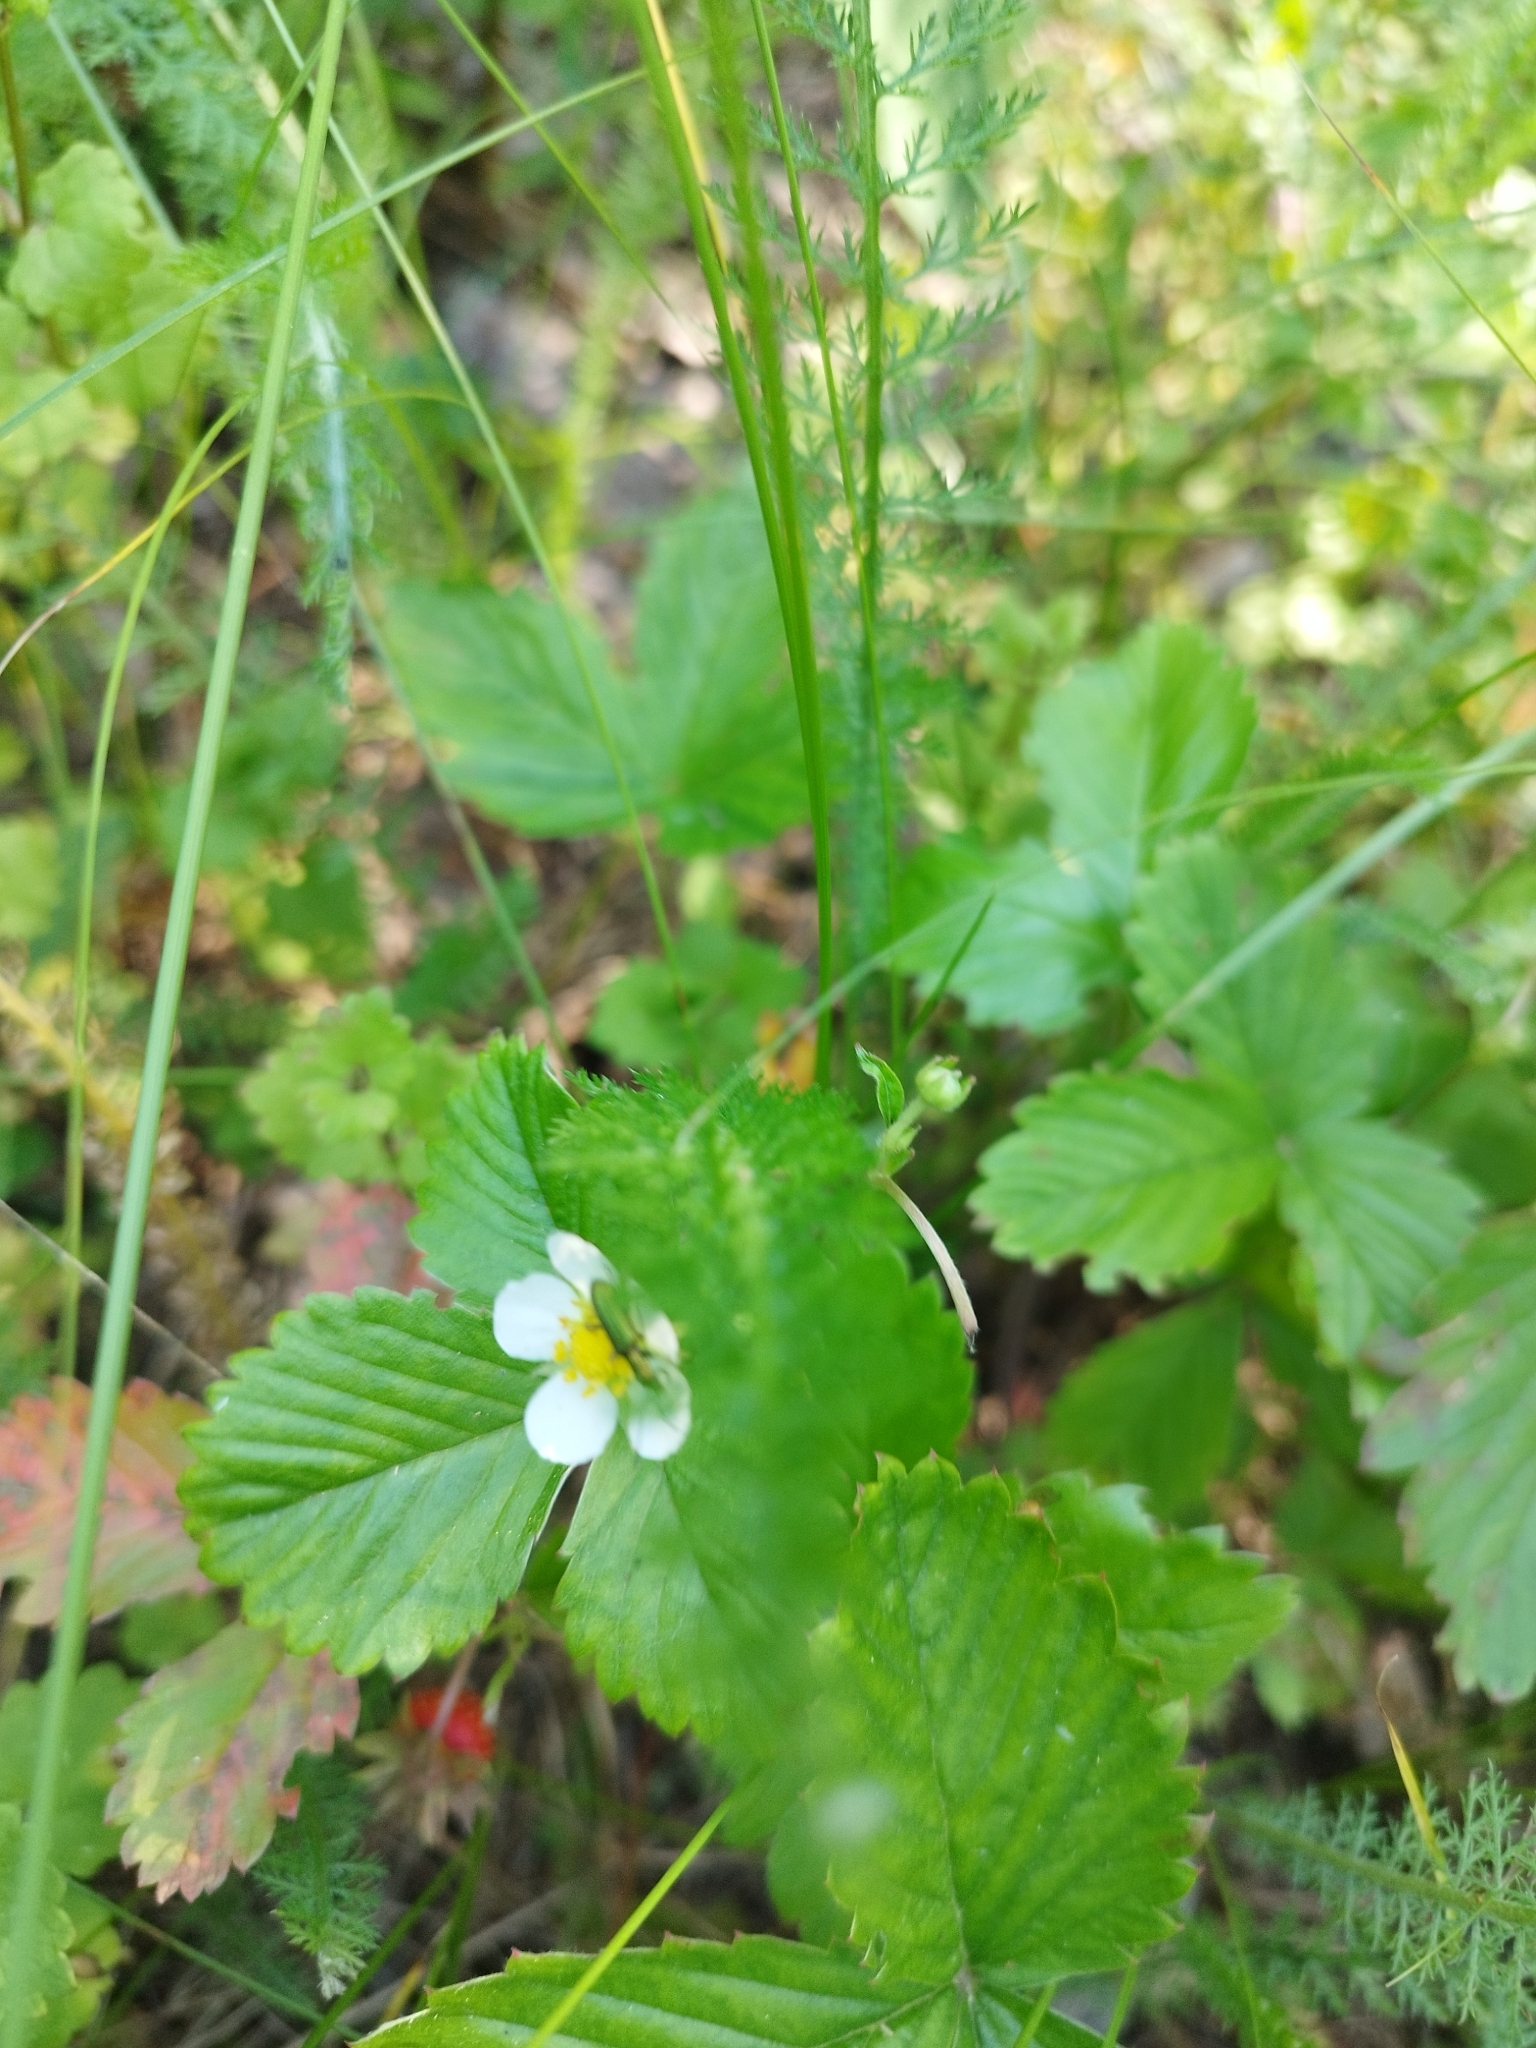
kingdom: Plantae
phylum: Tracheophyta
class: Magnoliopsida
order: Rosales
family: Rosaceae
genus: Fragaria
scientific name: Fragaria vesca
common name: Wild strawberry
